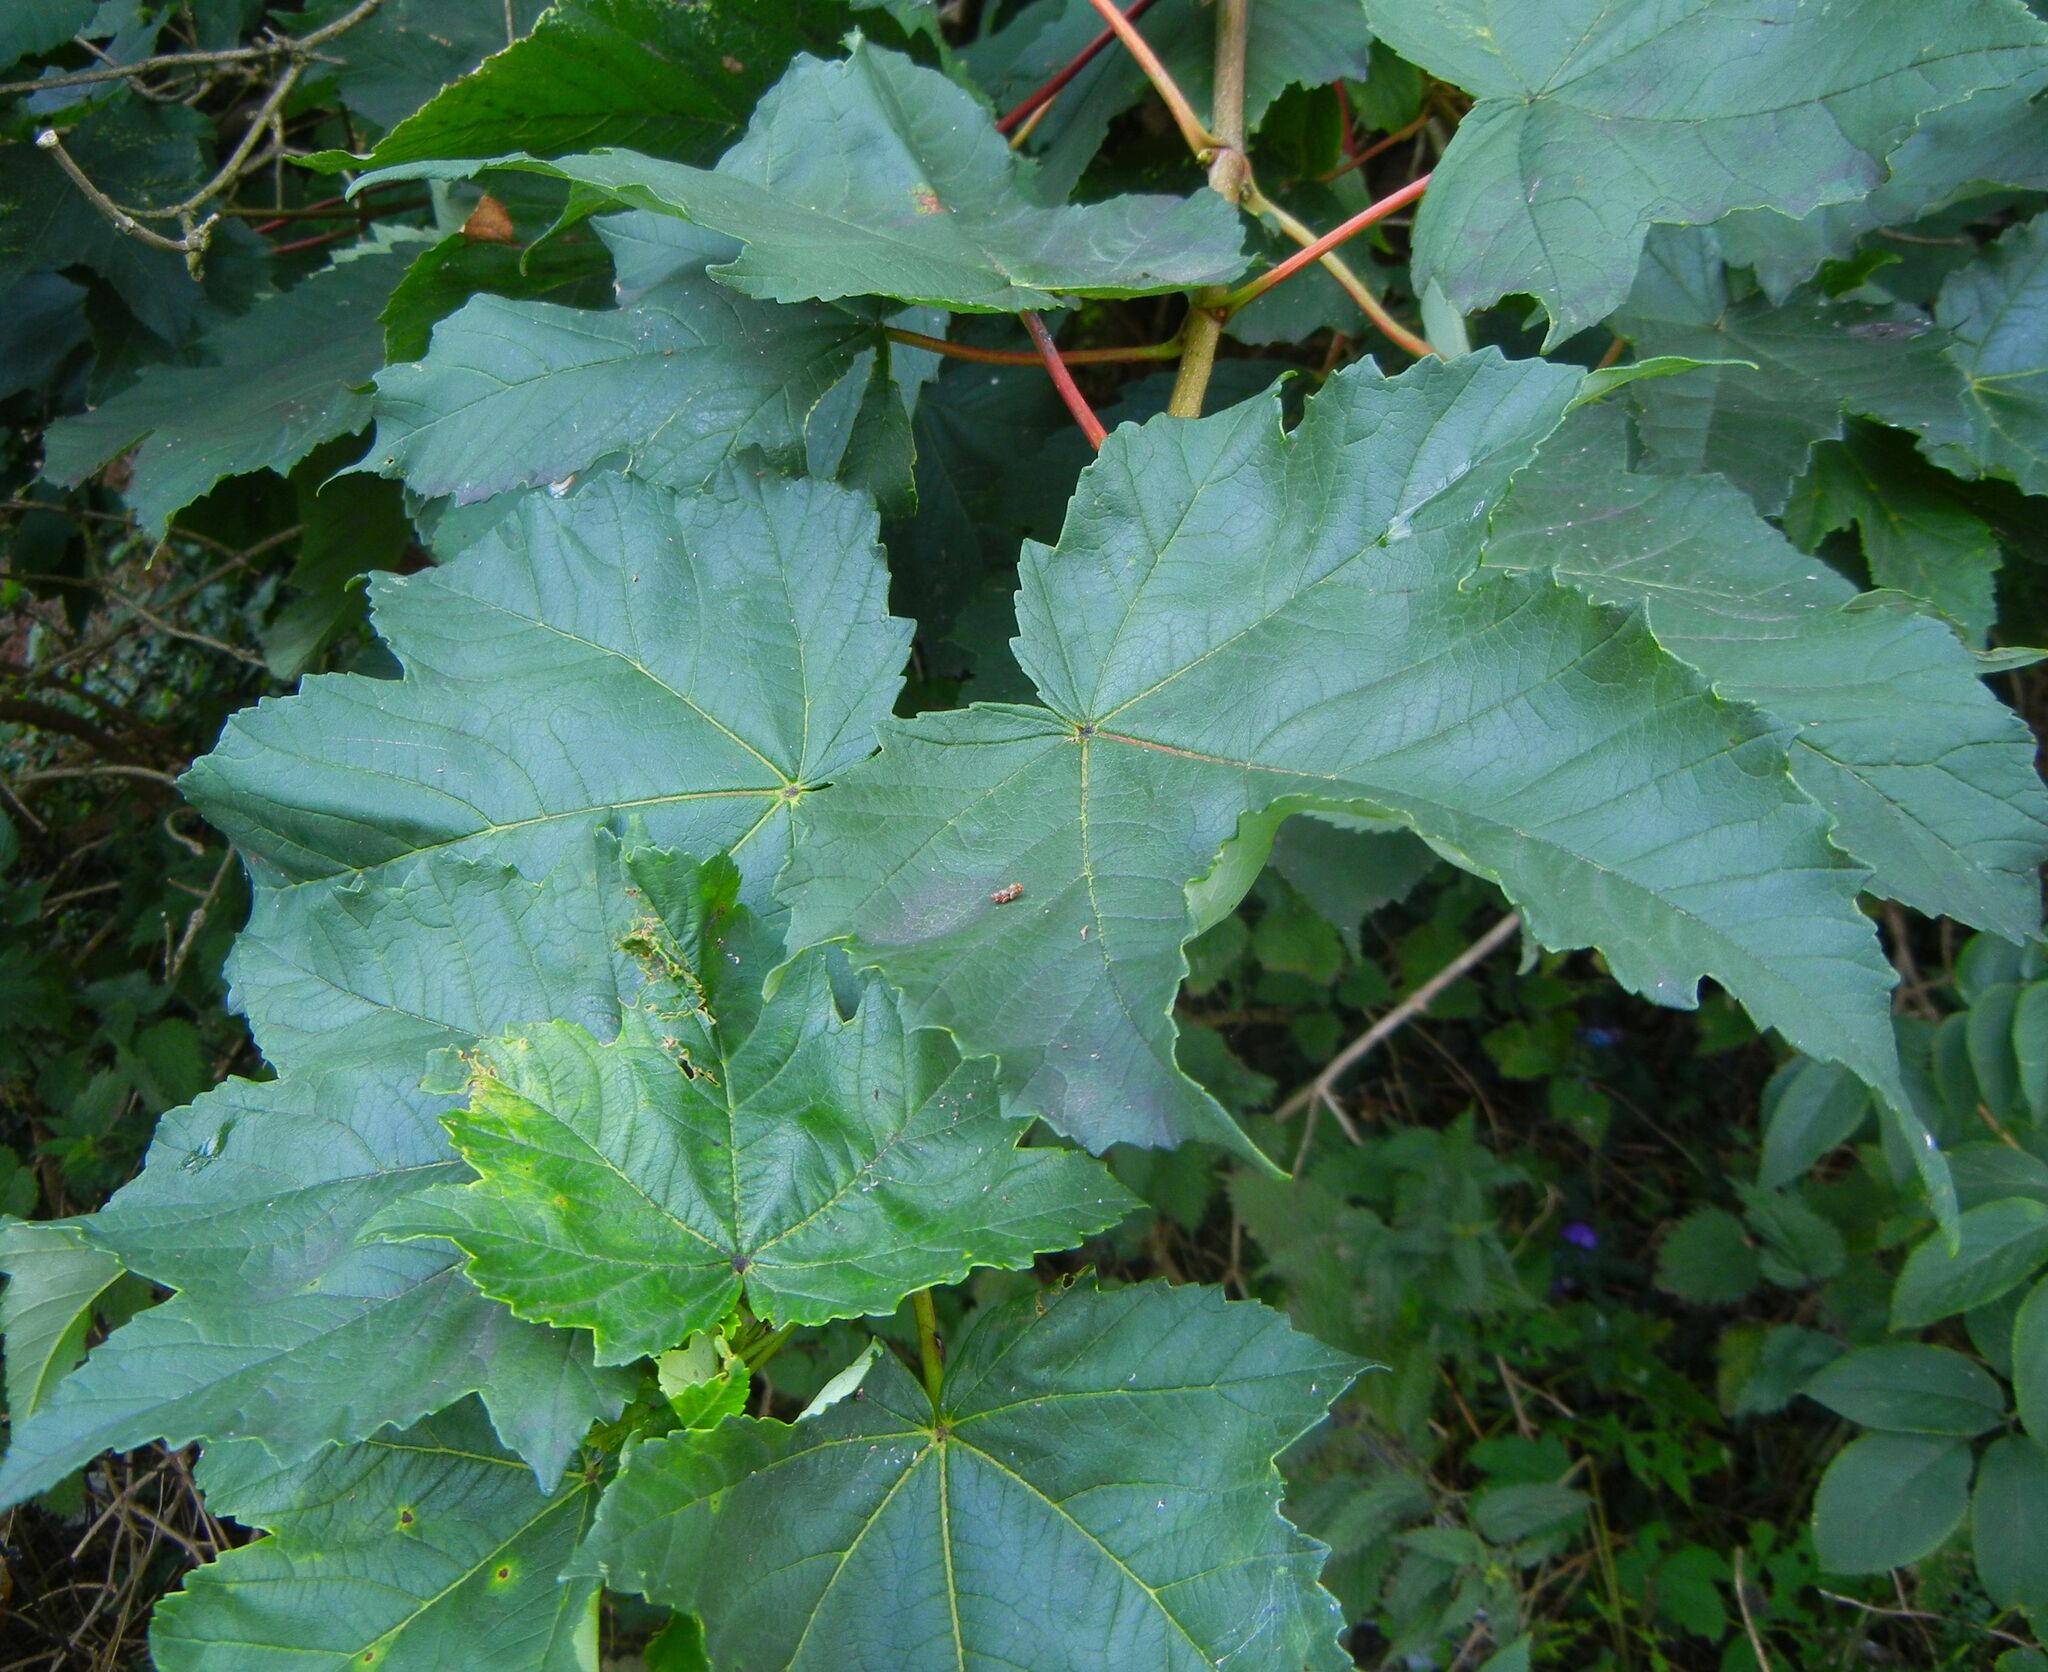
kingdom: Plantae
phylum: Tracheophyta
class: Magnoliopsida
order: Sapindales
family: Sapindaceae
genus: Acer
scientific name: Acer pseudoplatanus
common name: Sycamore
